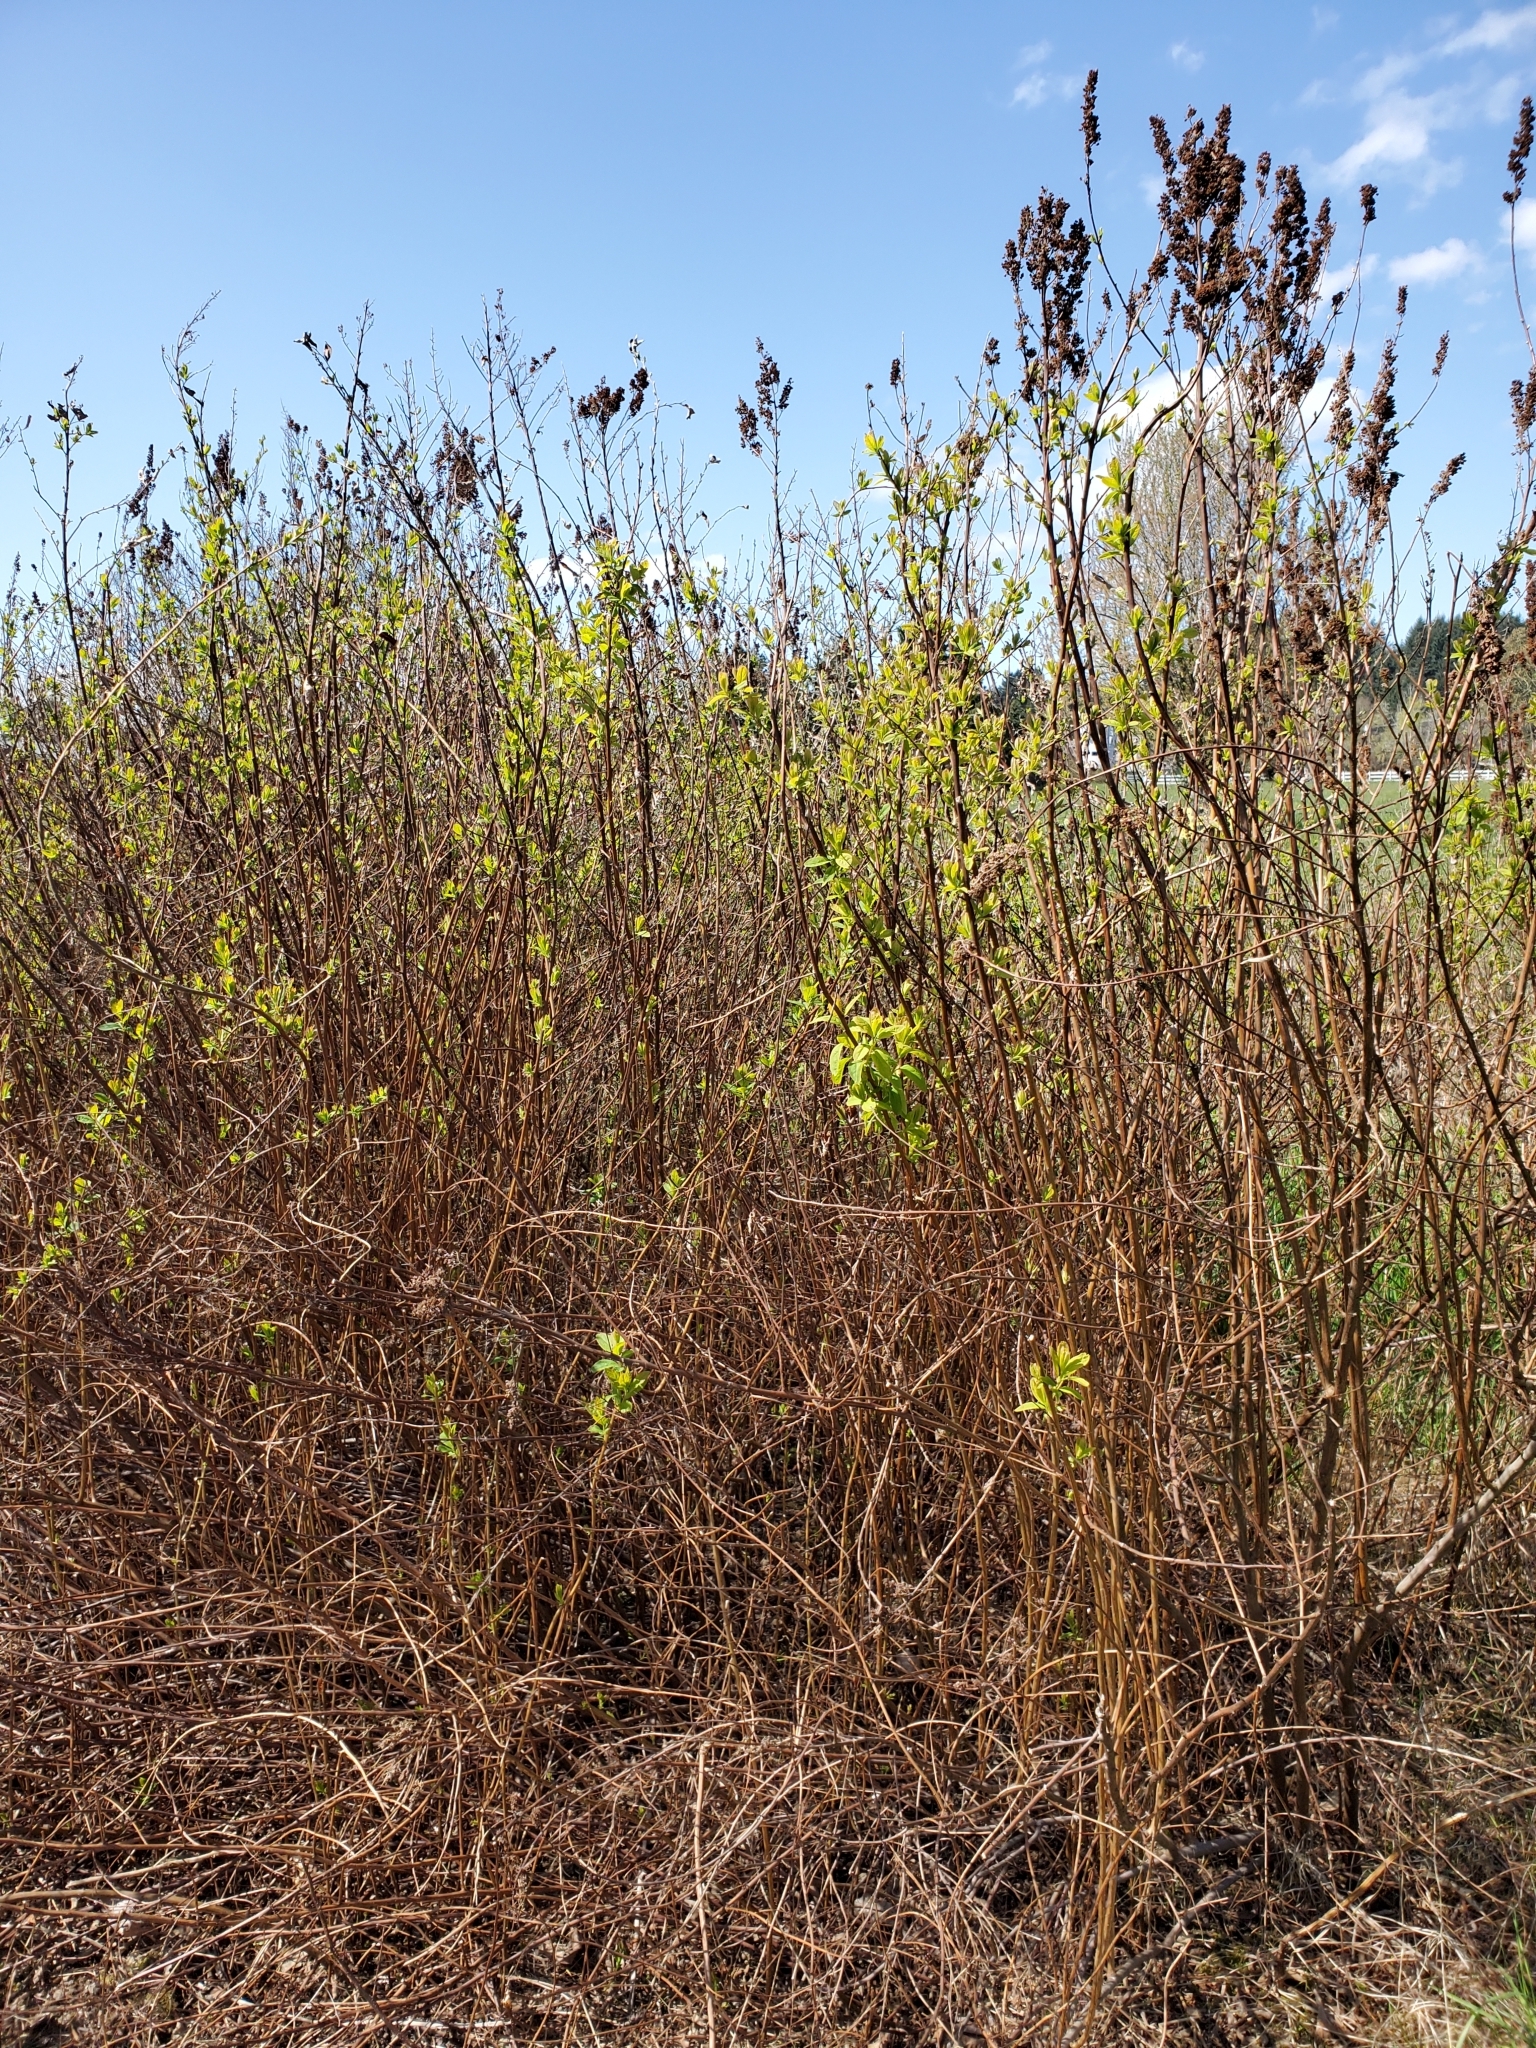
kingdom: Plantae
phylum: Tracheophyta
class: Magnoliopsida
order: Rosales
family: Rosaceae
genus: Spiraea
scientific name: Spiraea douglasii
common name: Steeplebush
